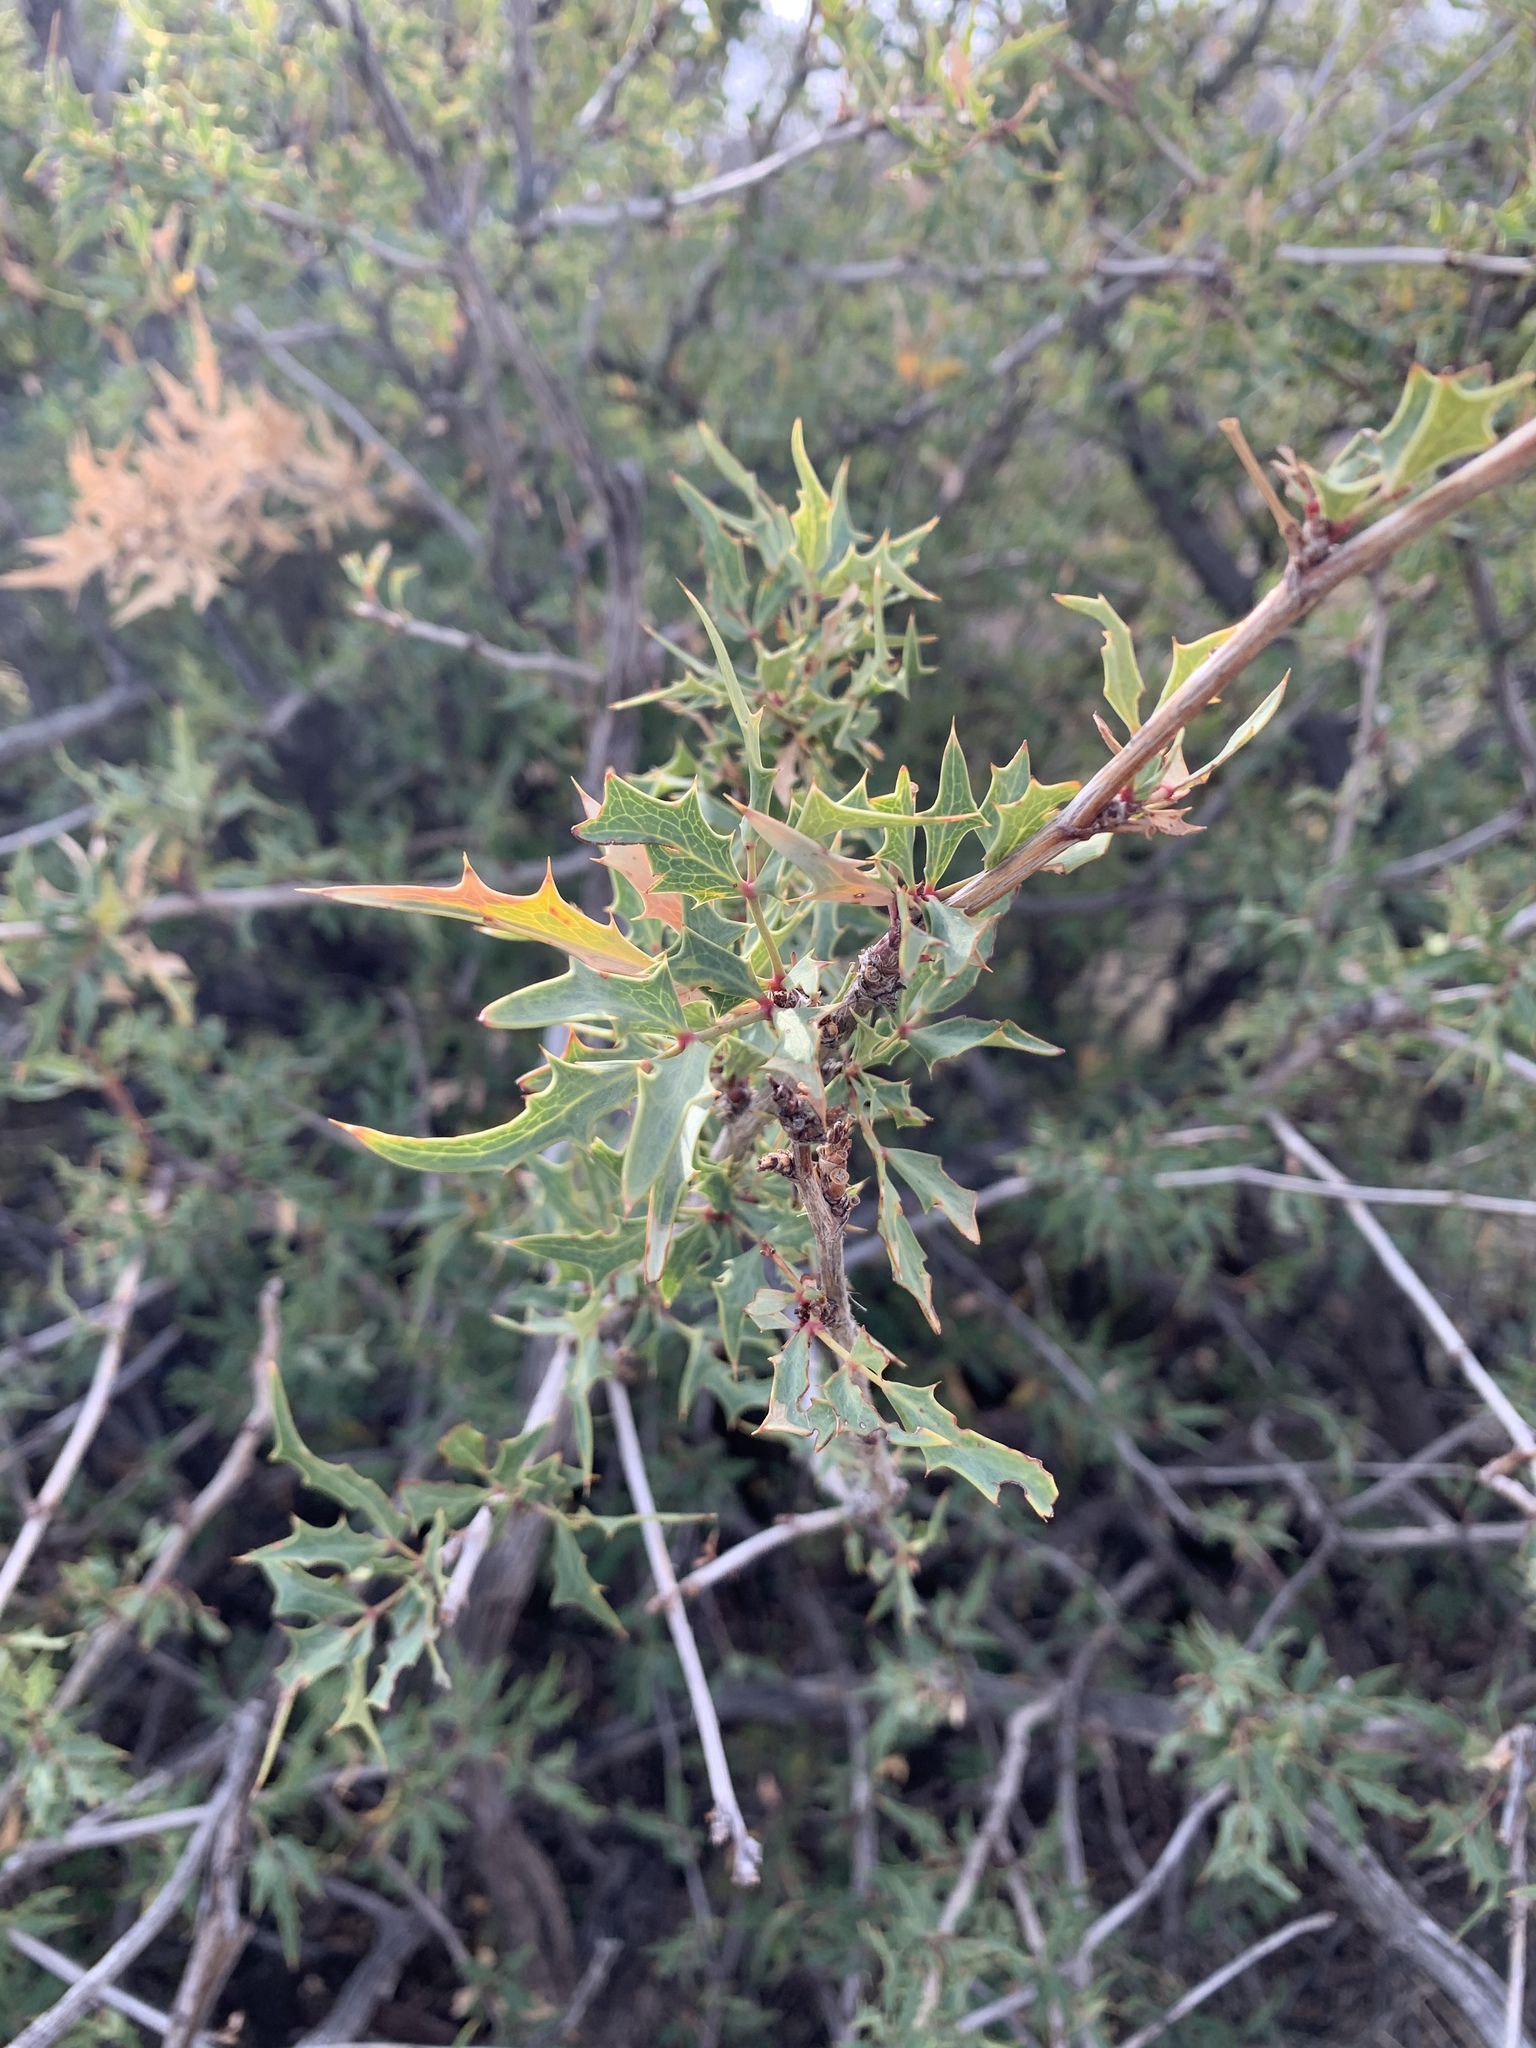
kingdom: Plantae
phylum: Tracheophyta
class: Magnoliopsida
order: Ranunculales
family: Berberidaceae
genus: Alloberberis
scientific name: Alloberberis haematocarpa
